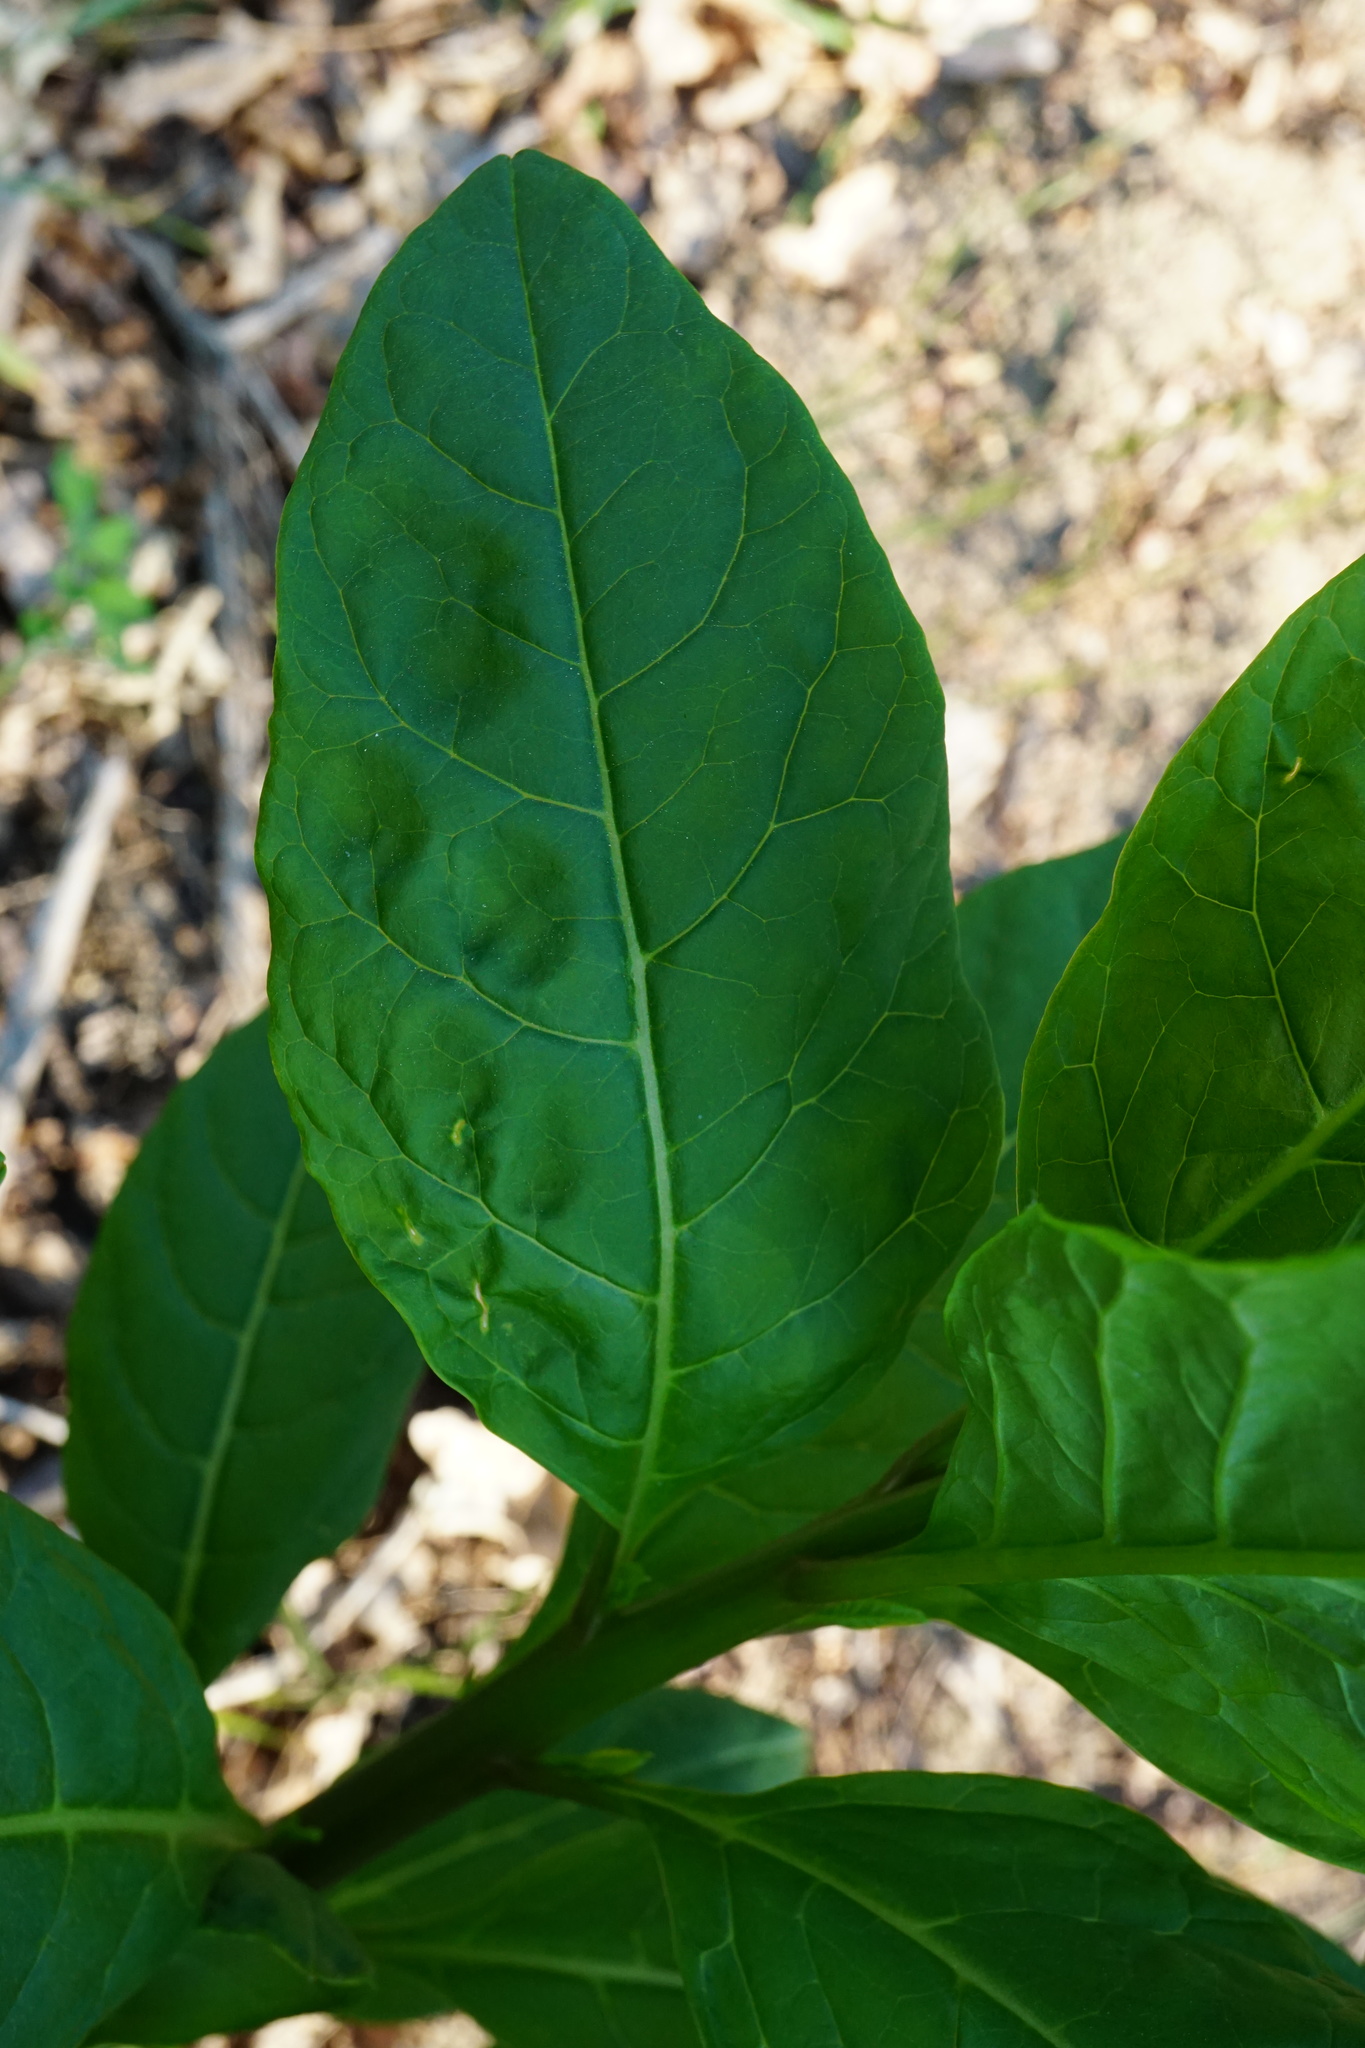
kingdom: Plantae
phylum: Tracheophyta
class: Magnoliopsida
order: Caryophyllales
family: Phytolaccaceae
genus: Phytolacca
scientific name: Phytolacca americana
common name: American pokeweed
